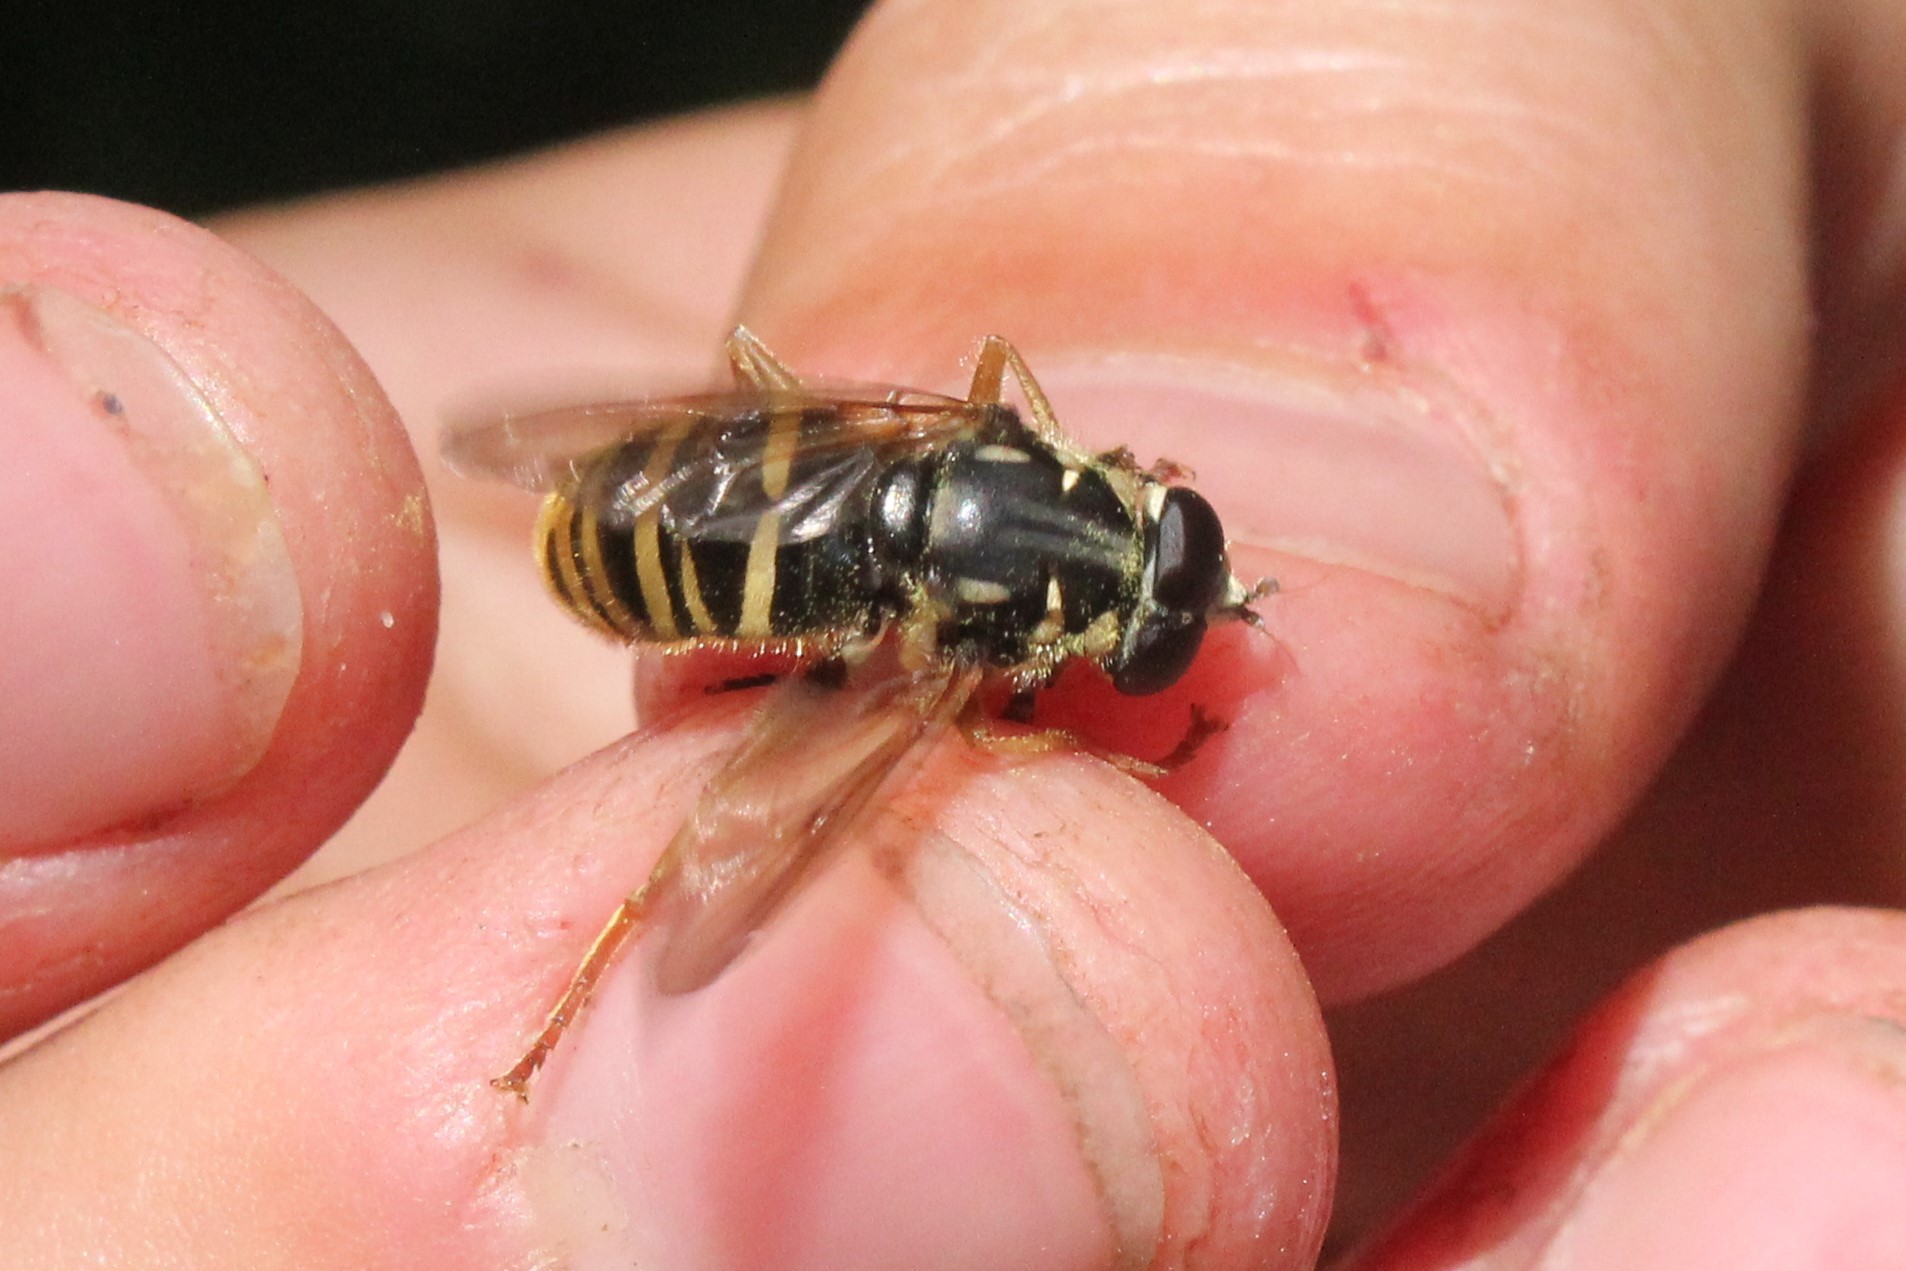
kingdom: Animalia
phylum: Arthropoda
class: Insecta
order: Diptera
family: Syrphidae
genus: Temnostoma
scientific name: Temnostoma excentricum
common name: Black-spotted falsehorn
